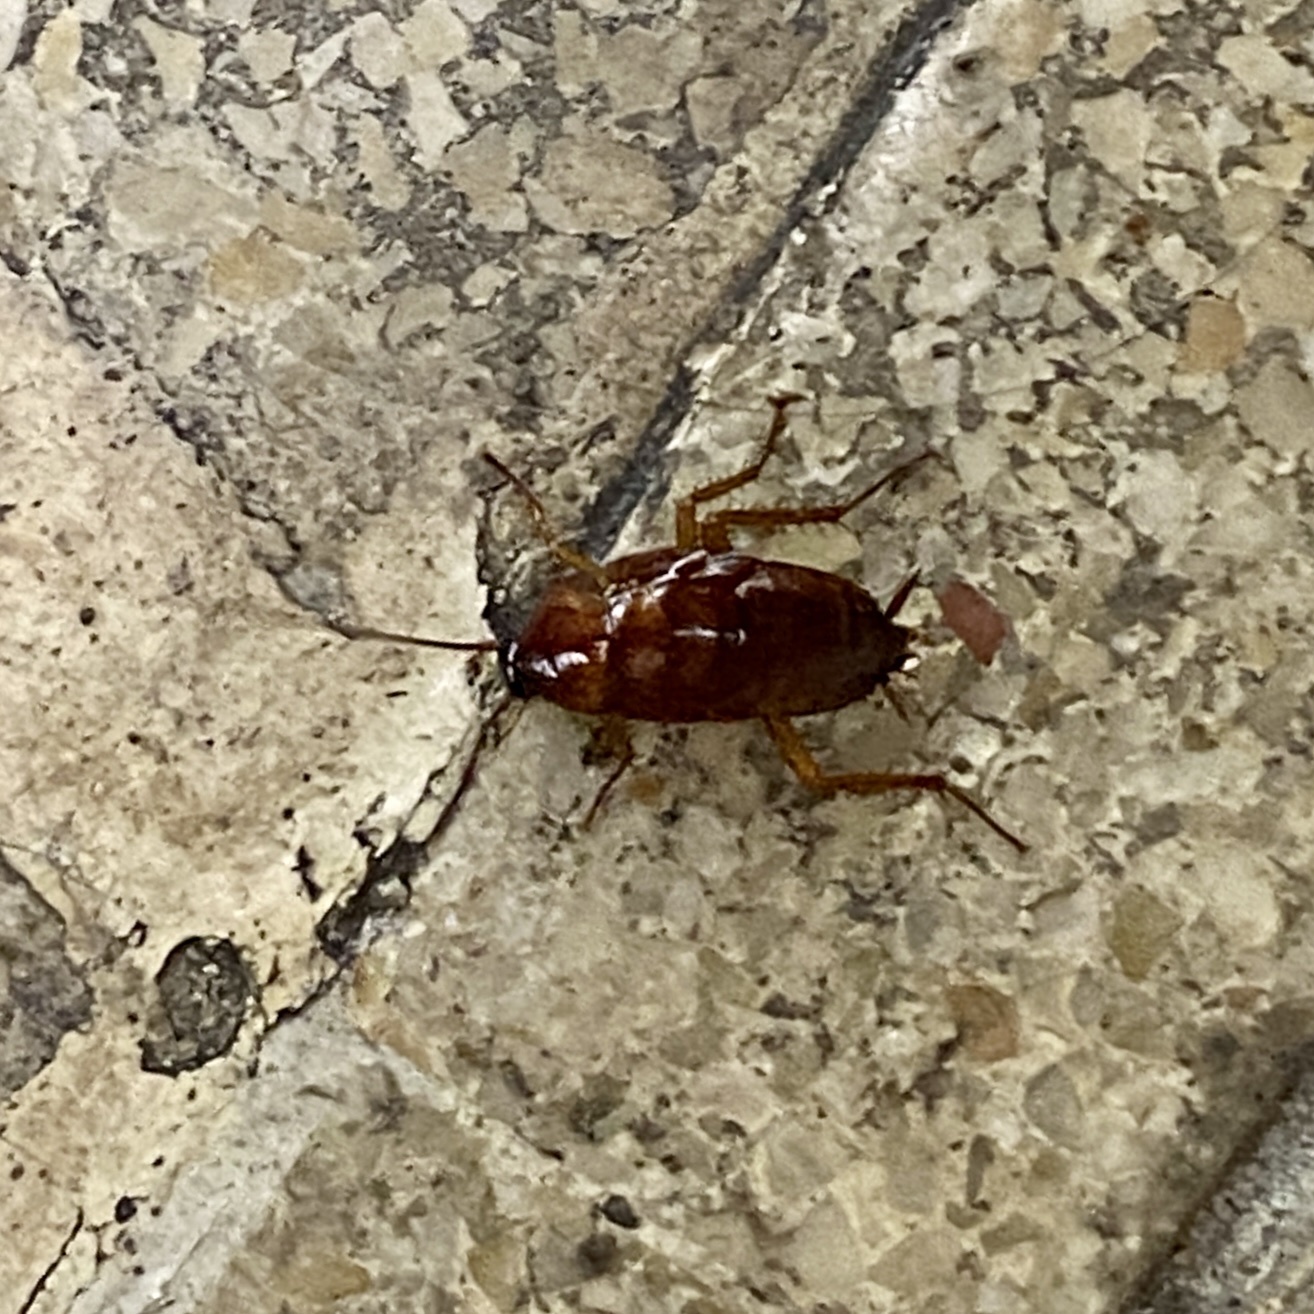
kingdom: Animalia
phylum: Arthropoda
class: Insecta
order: Blattodea
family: Blattidae
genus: Periplaneta
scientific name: Periplaneta americana
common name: American cockroach
